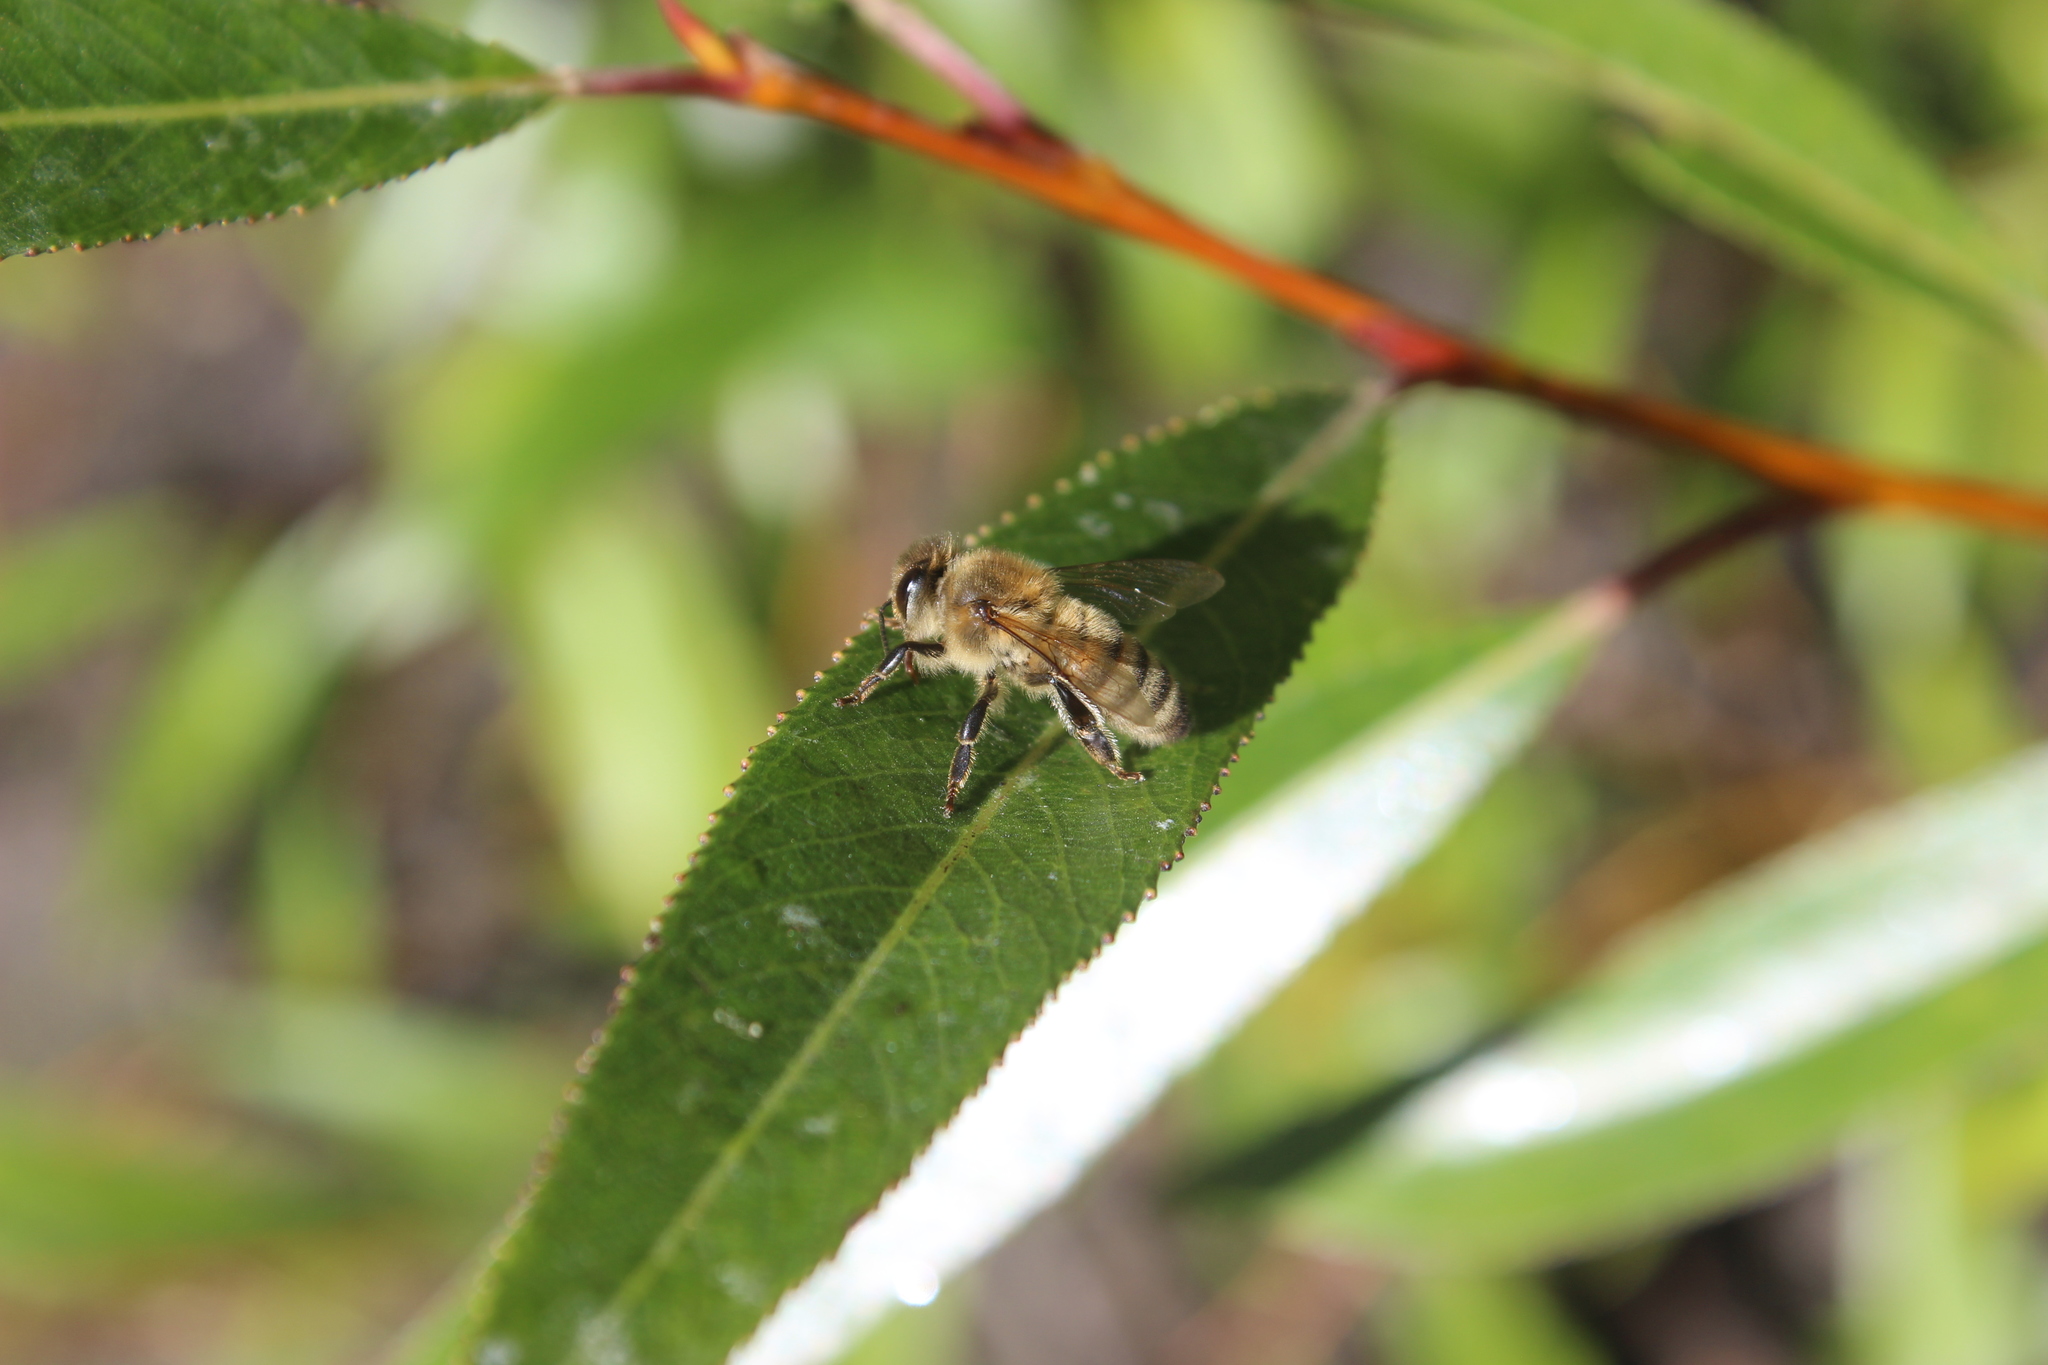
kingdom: Animalia
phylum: Arthropoda
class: Insecta
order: Hymenoptera
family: Apidae
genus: Apis
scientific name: Apis mellifera
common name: Honey bee
